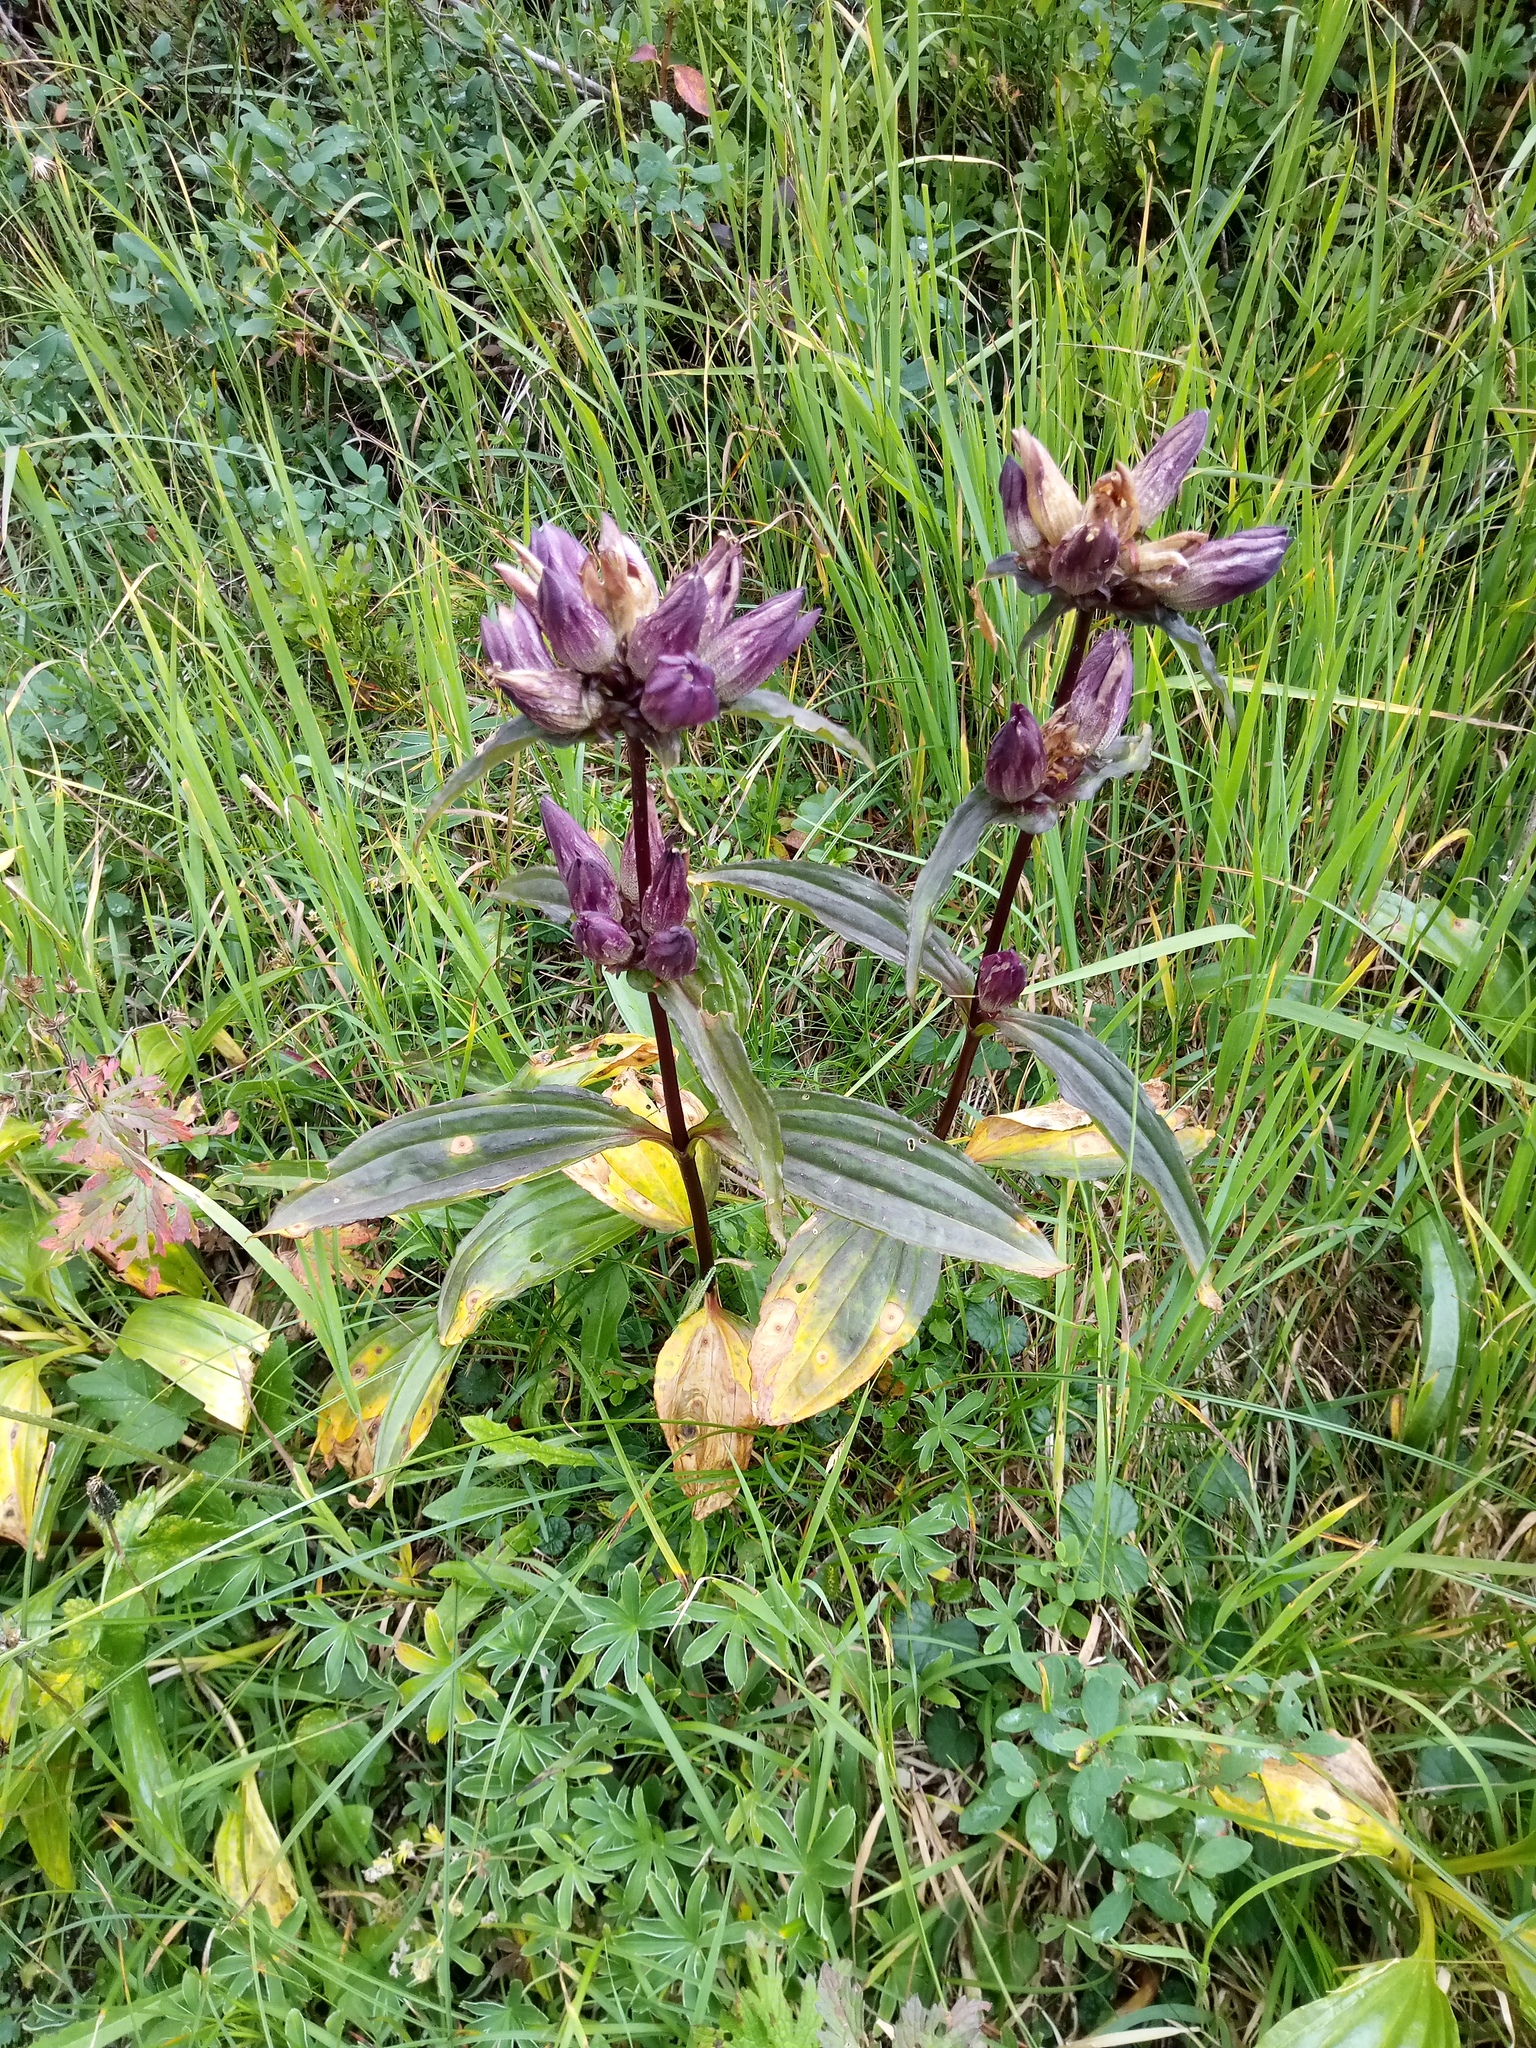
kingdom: Plantae
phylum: Tracheophyta
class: Magnoliopsida
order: Gentianales
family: Gentianaceae
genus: Gentiana
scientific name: Gentiana pannonica
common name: Hungarian gentian
